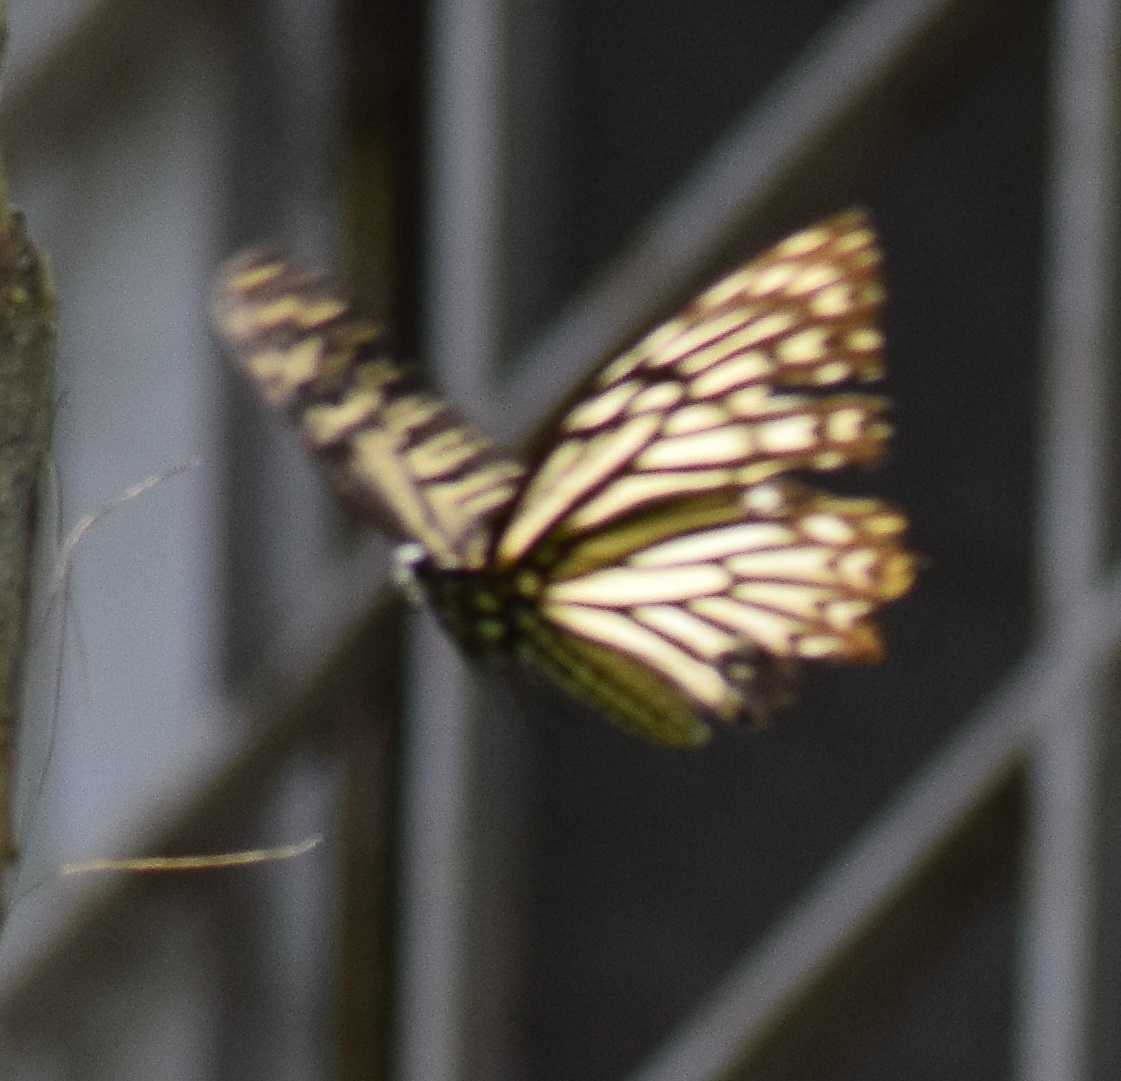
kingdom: Animalia
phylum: Arthropoda
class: Insecta
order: Lepidoptera
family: Papilionidae
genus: Chilasa
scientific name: Chilasa clytia
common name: Common mime
